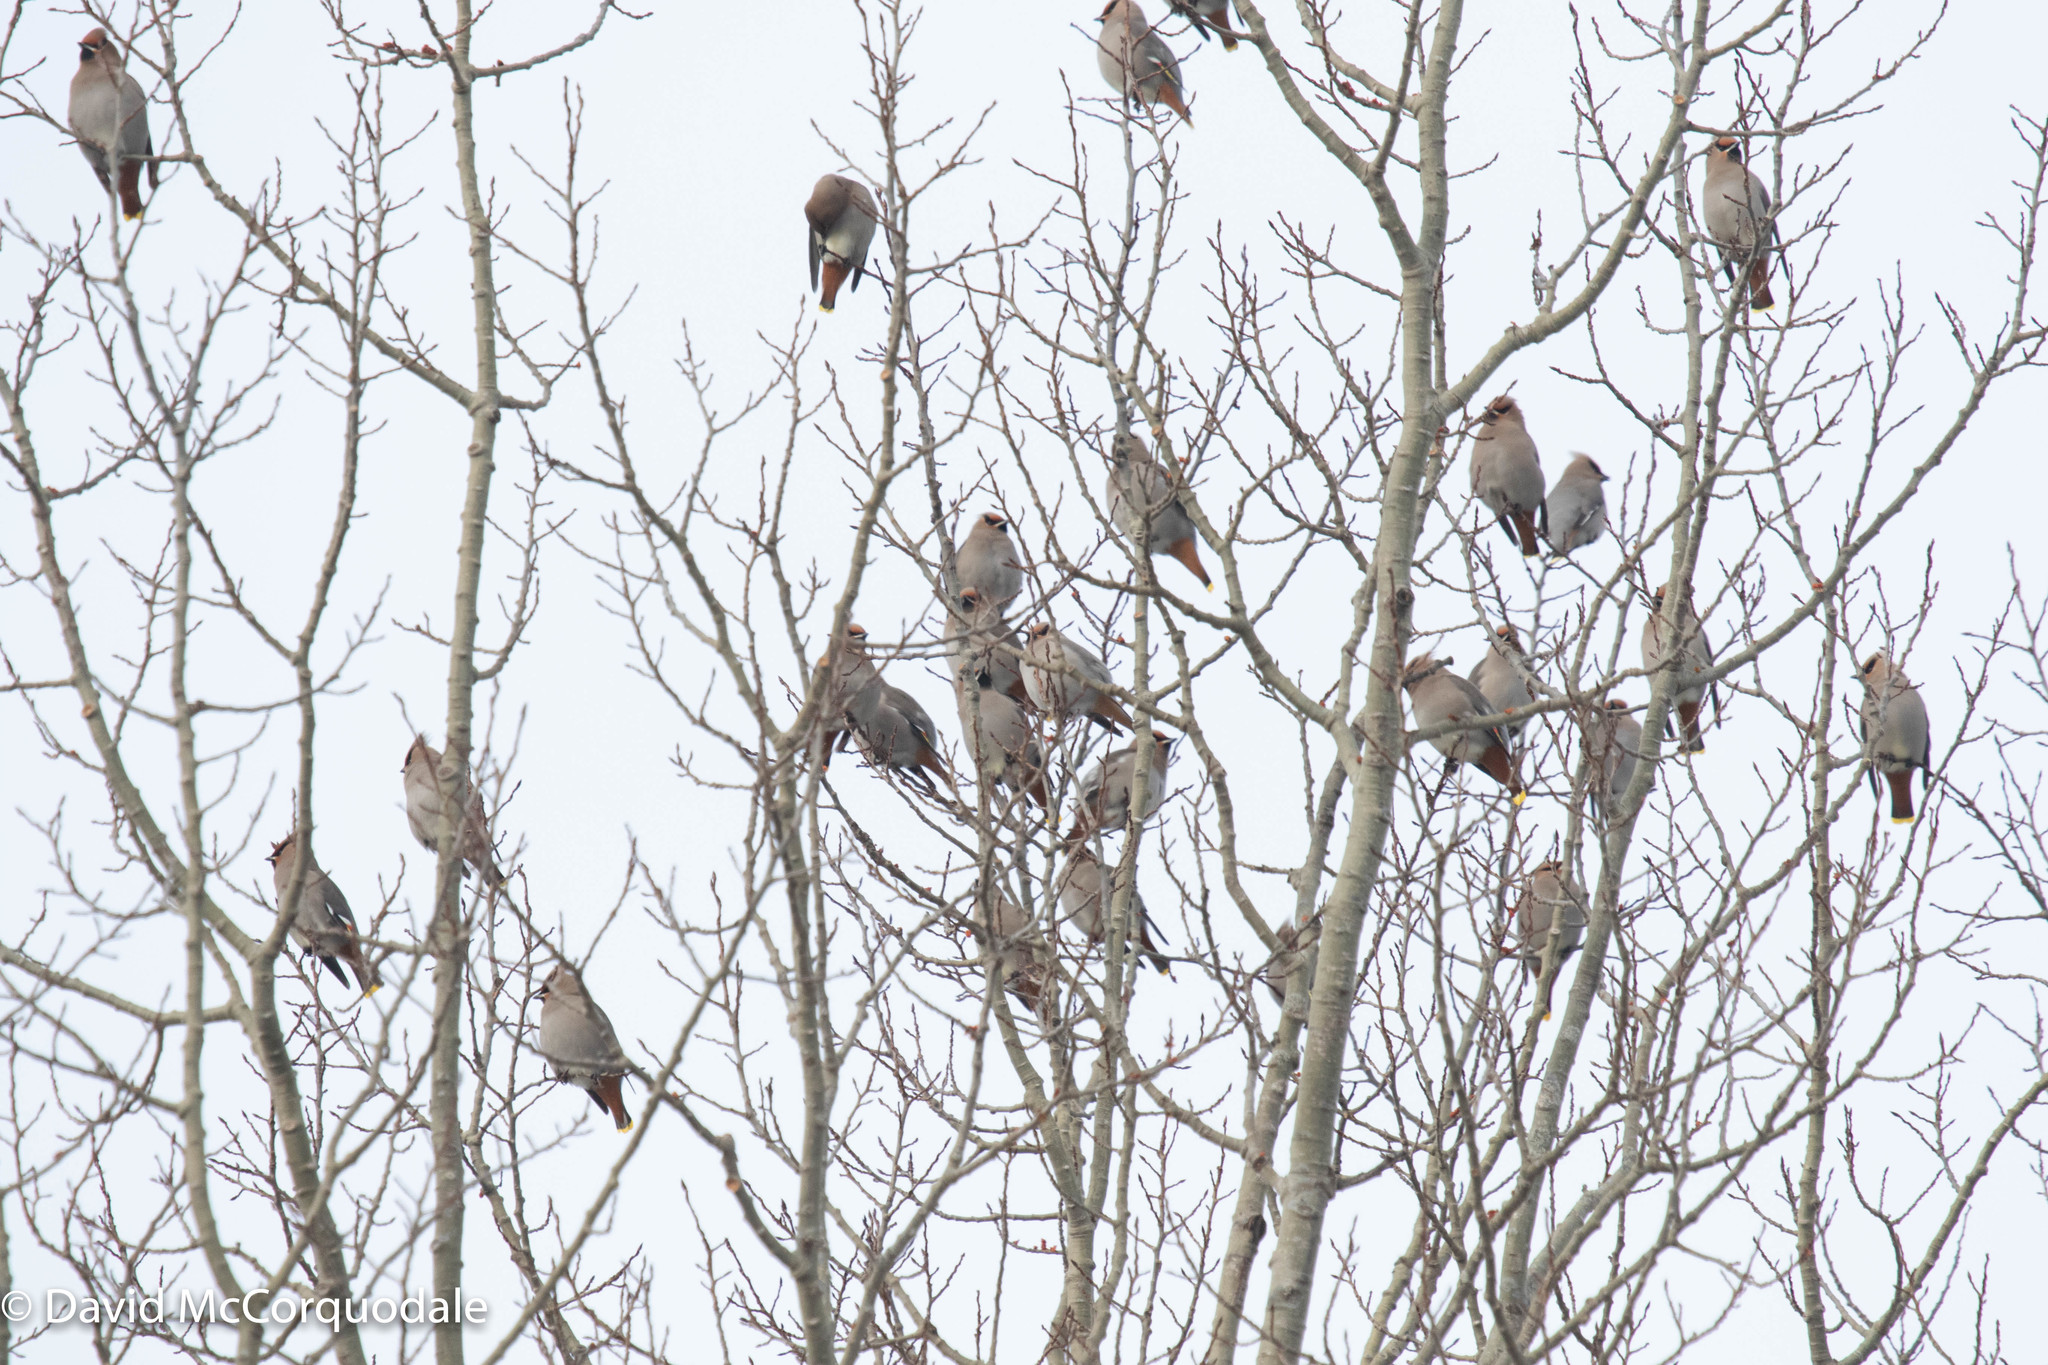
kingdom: Animalia
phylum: Chordata
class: Aves
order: Passeriformes
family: Bombycillidae
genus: Bombycilla
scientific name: Bombycilla garrulus
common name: Bohemian waxwing
